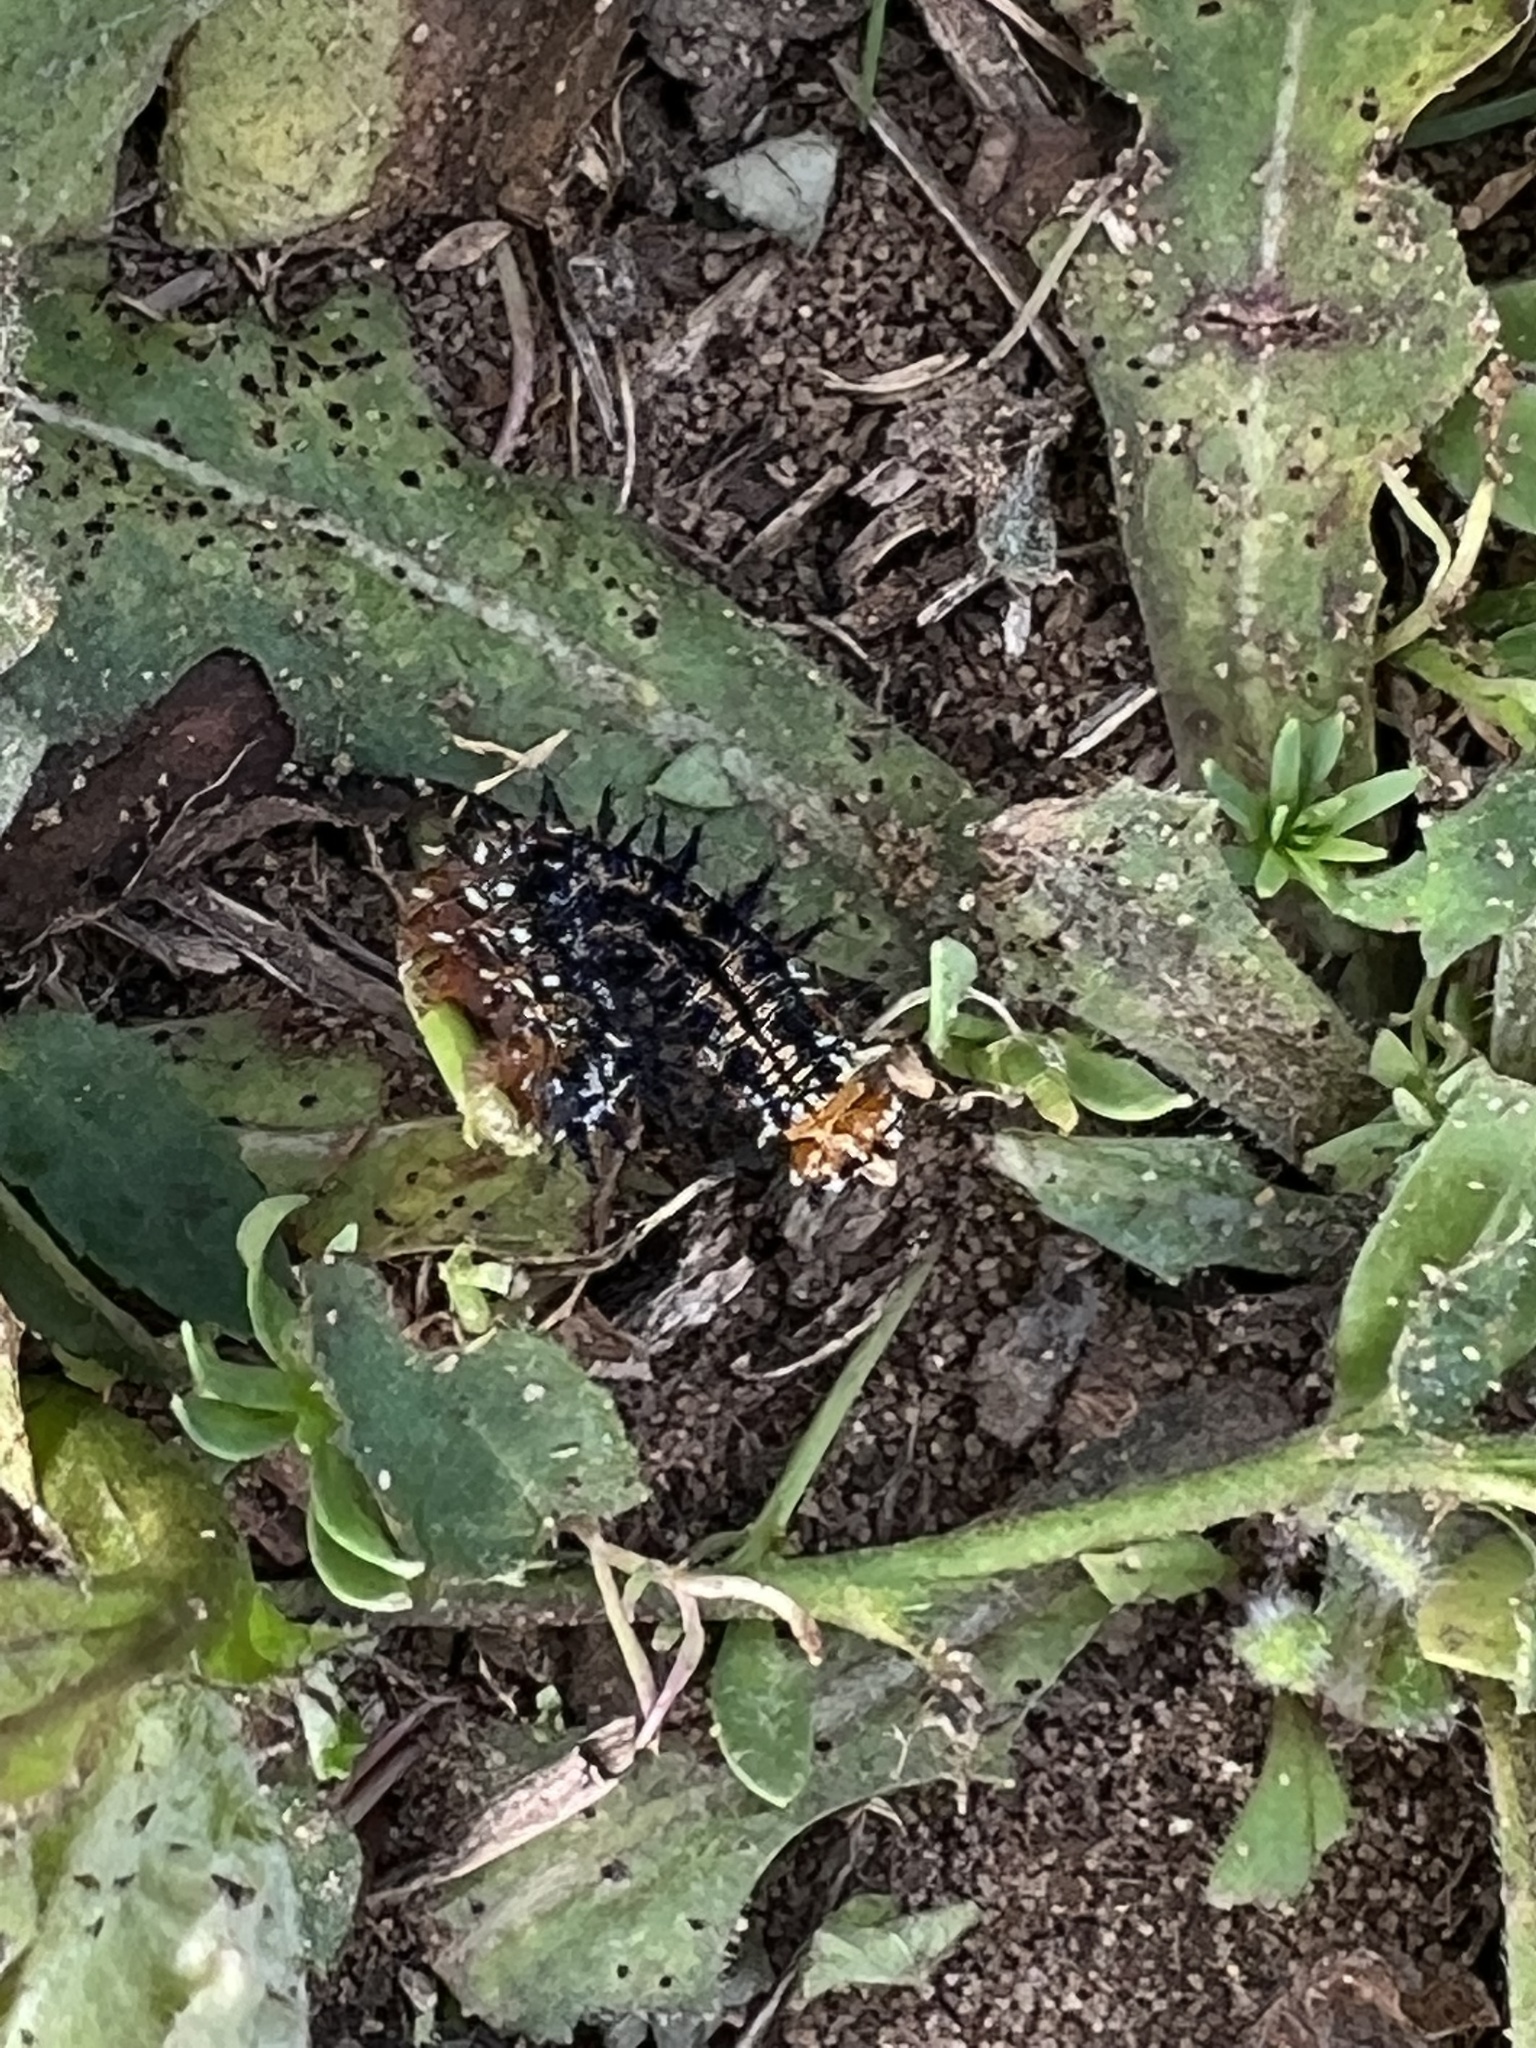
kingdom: Animalia
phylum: Arthropoda
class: Insecta
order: Lepidoptera
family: Nymphalidae
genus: Junonia
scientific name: Junonia coenia
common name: Common buckeye
